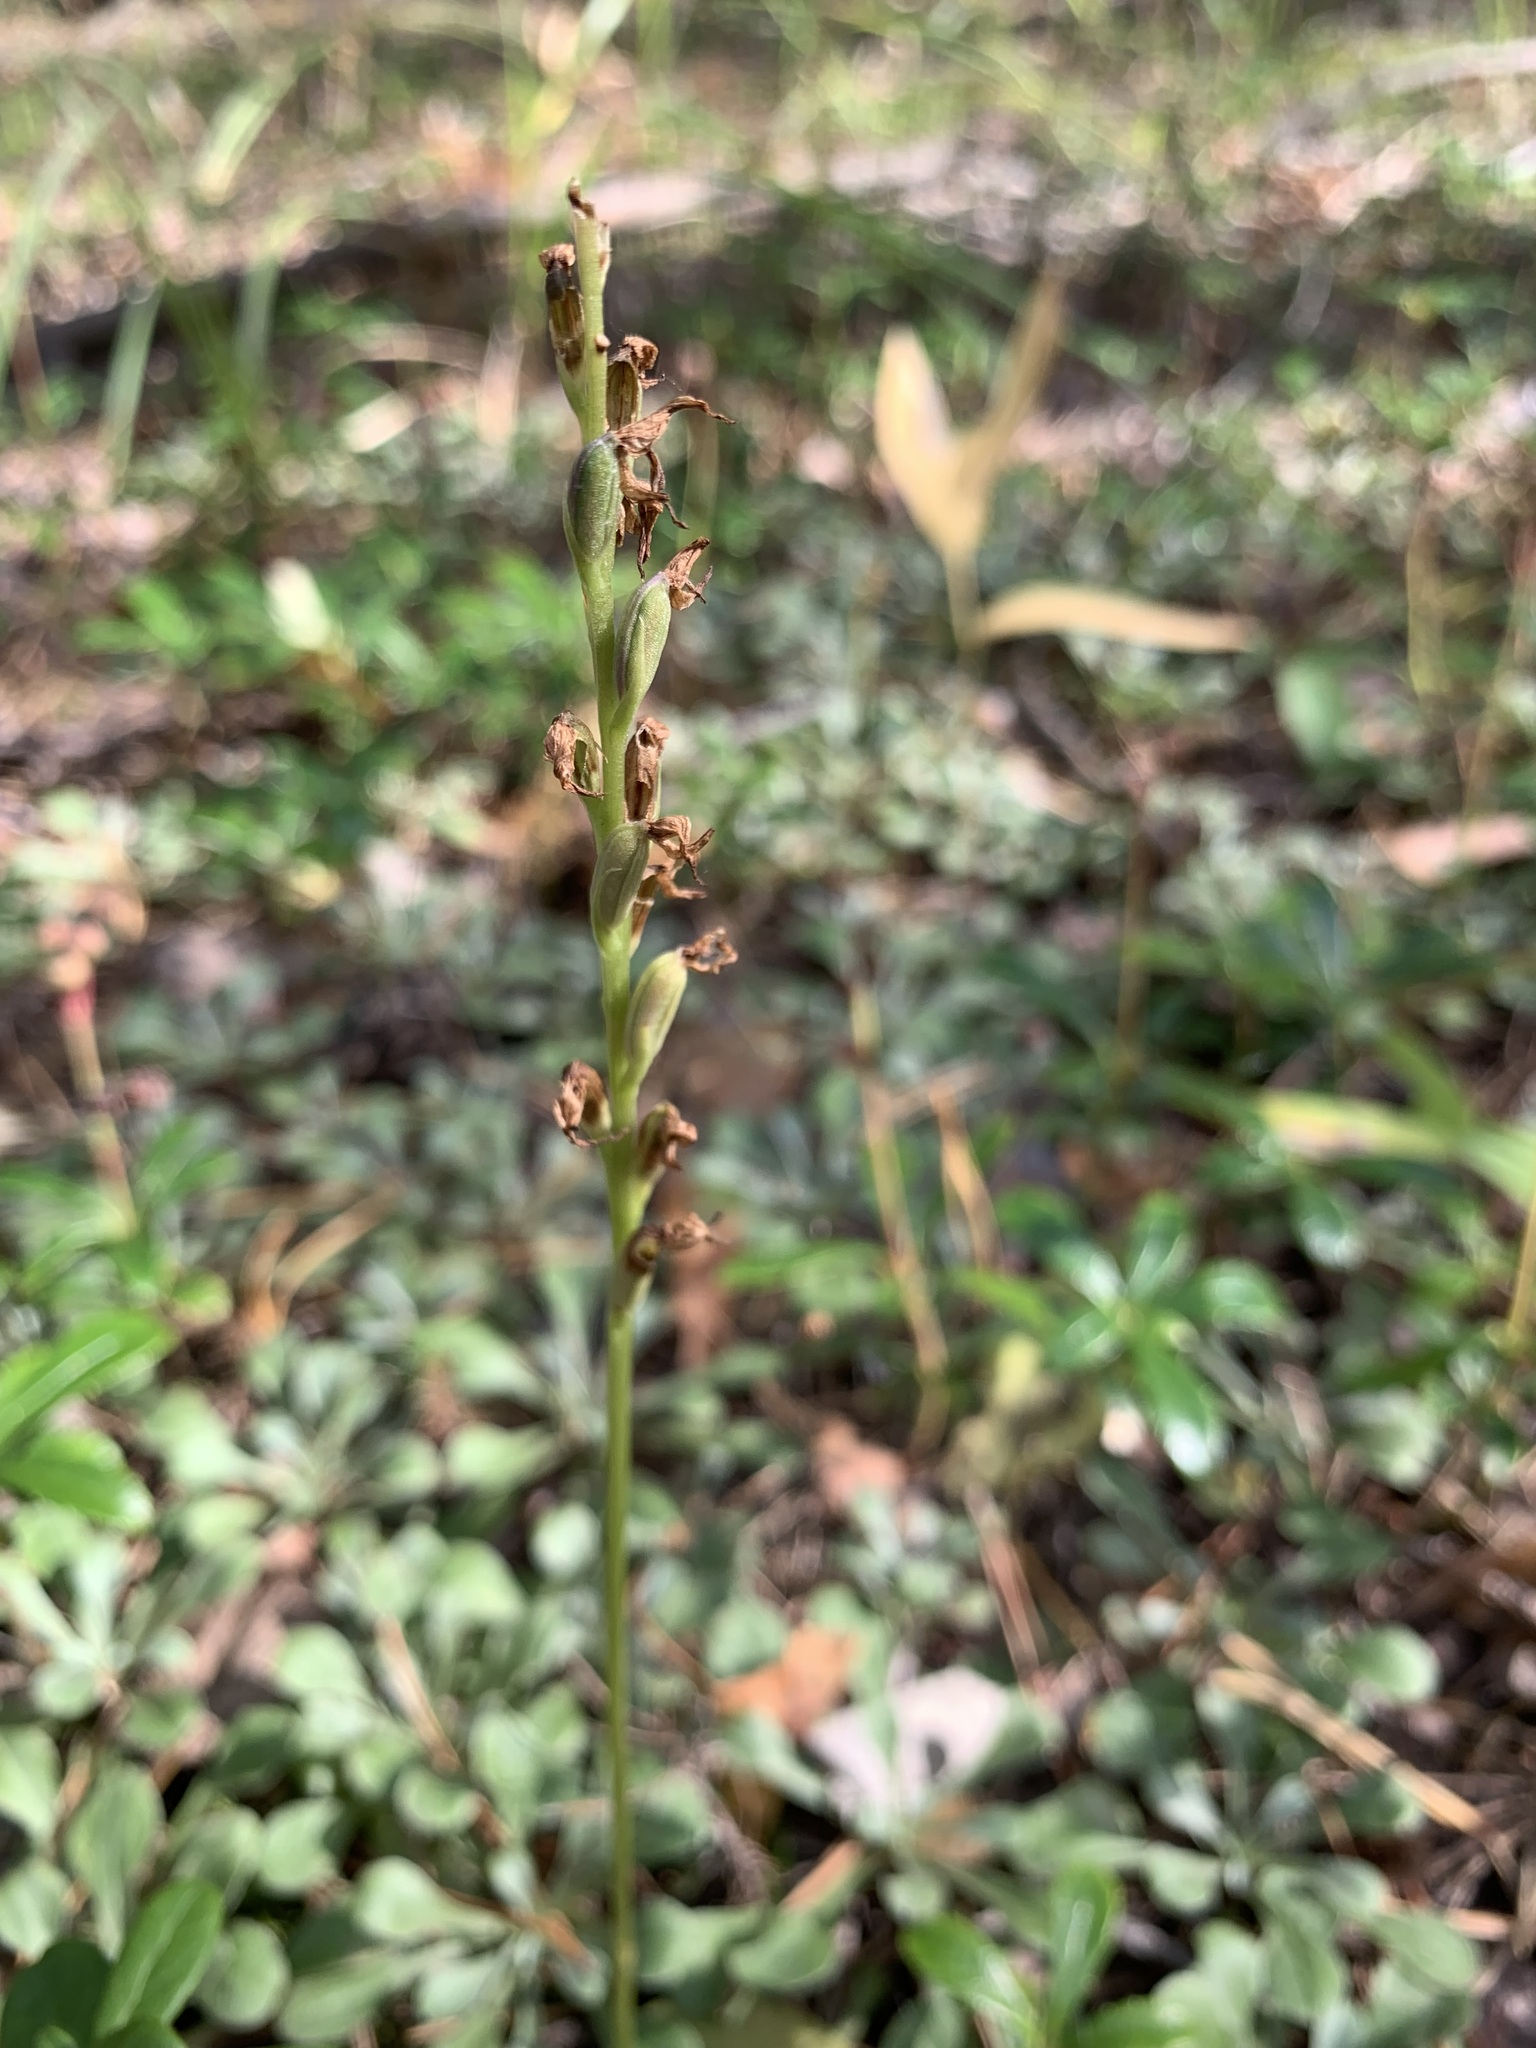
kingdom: Plantae
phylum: Tracheophyta
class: Liliopsida
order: Asparagales
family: Orchidaceae
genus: Hemipilia
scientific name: Hemipilia cucullata
